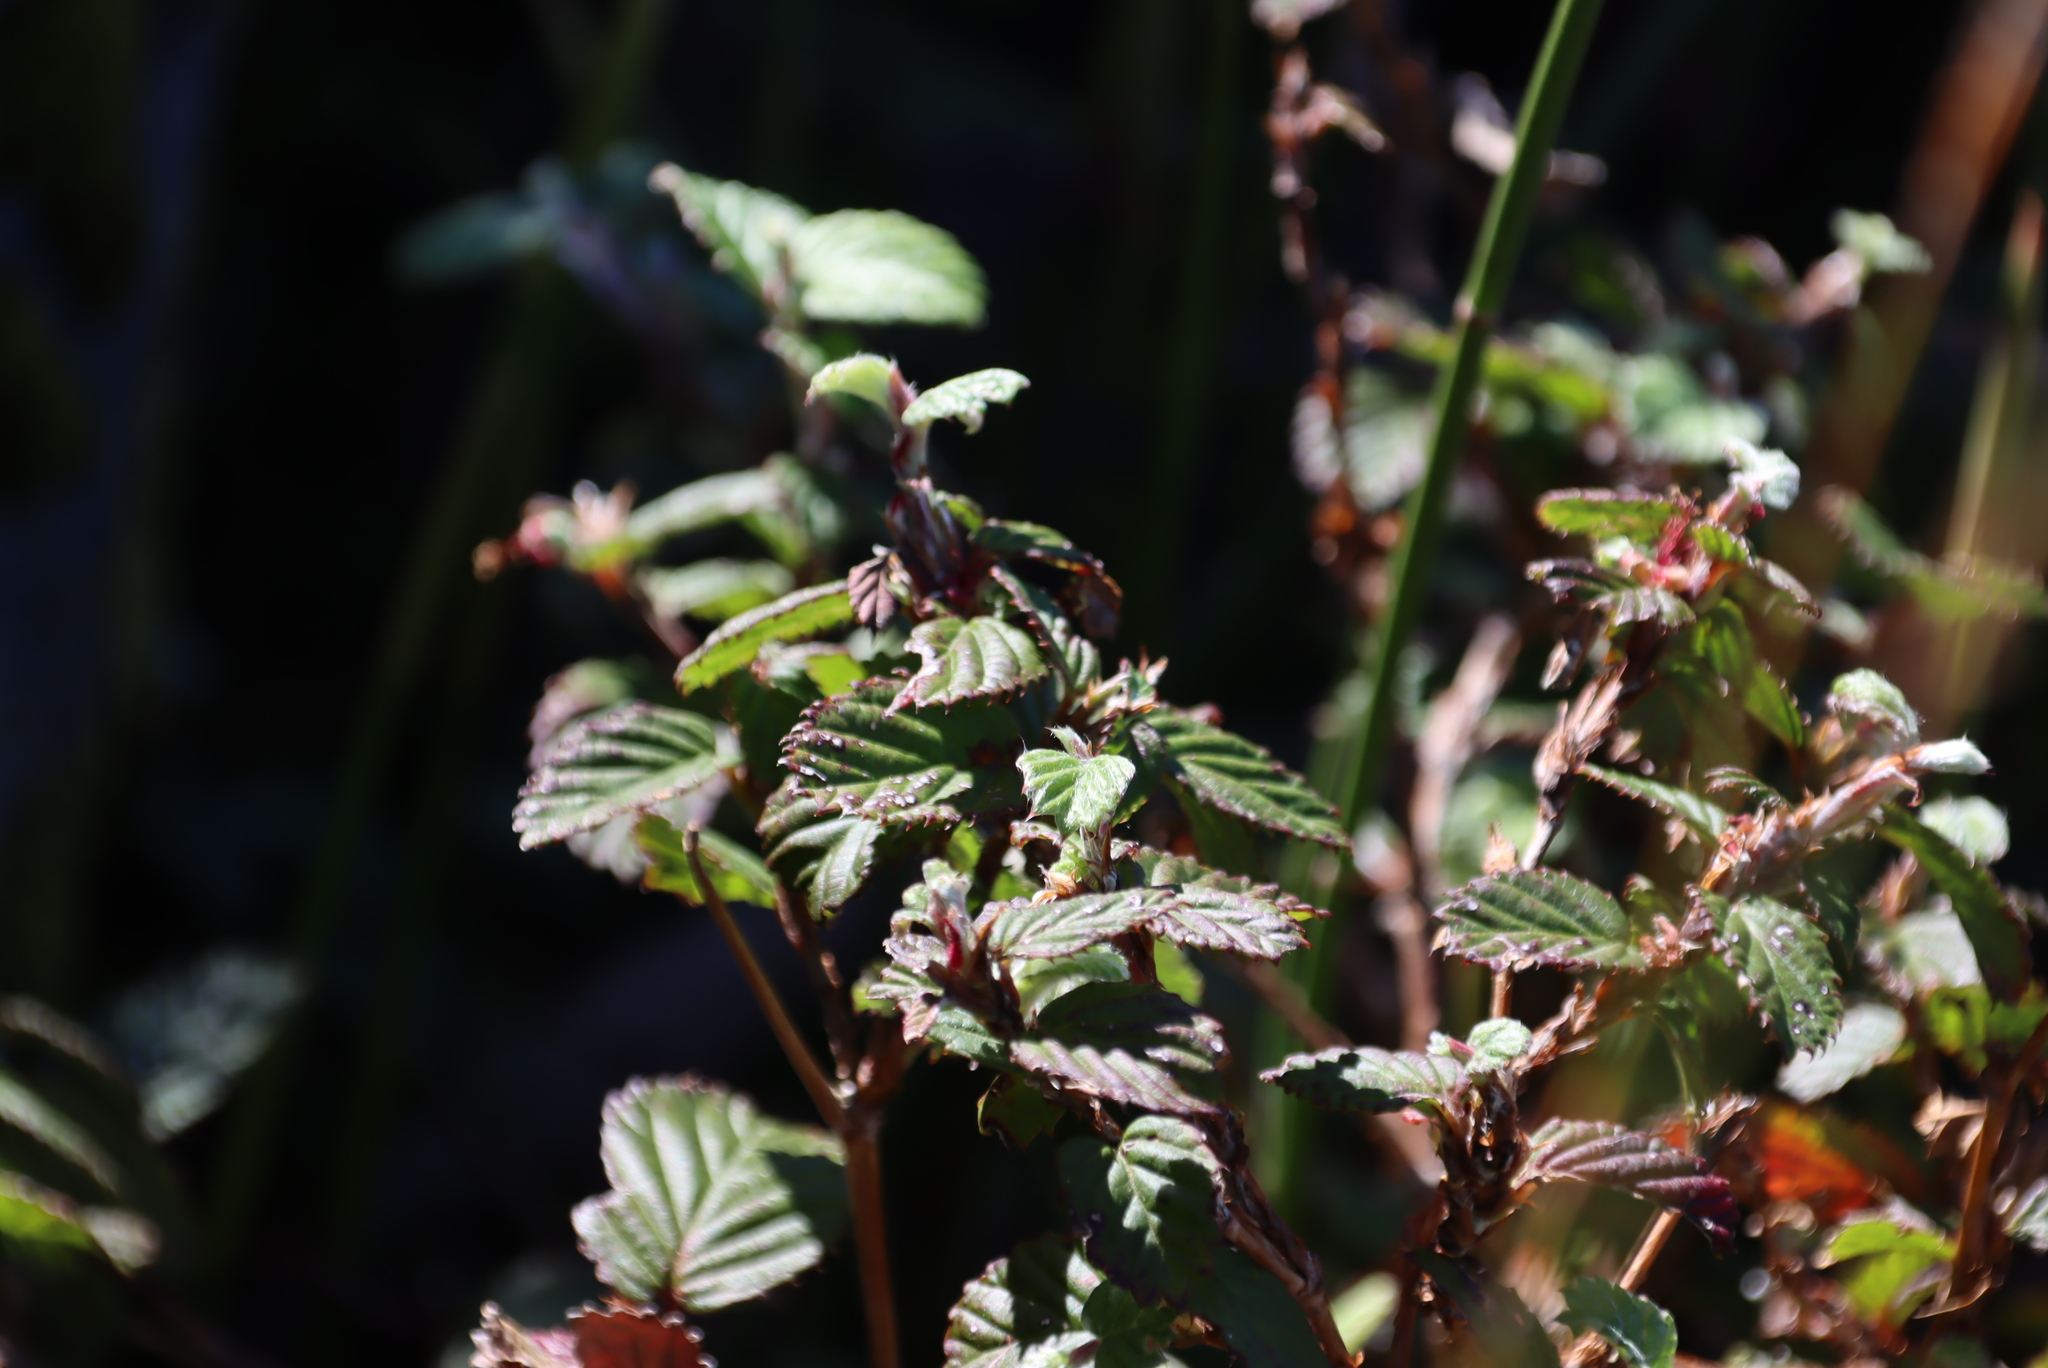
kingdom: Plantae
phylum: Tracheophyta
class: Magnoliopsida
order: Rosales
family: Rosaceae
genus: Cliffortia
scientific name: Cliffortia odorata
